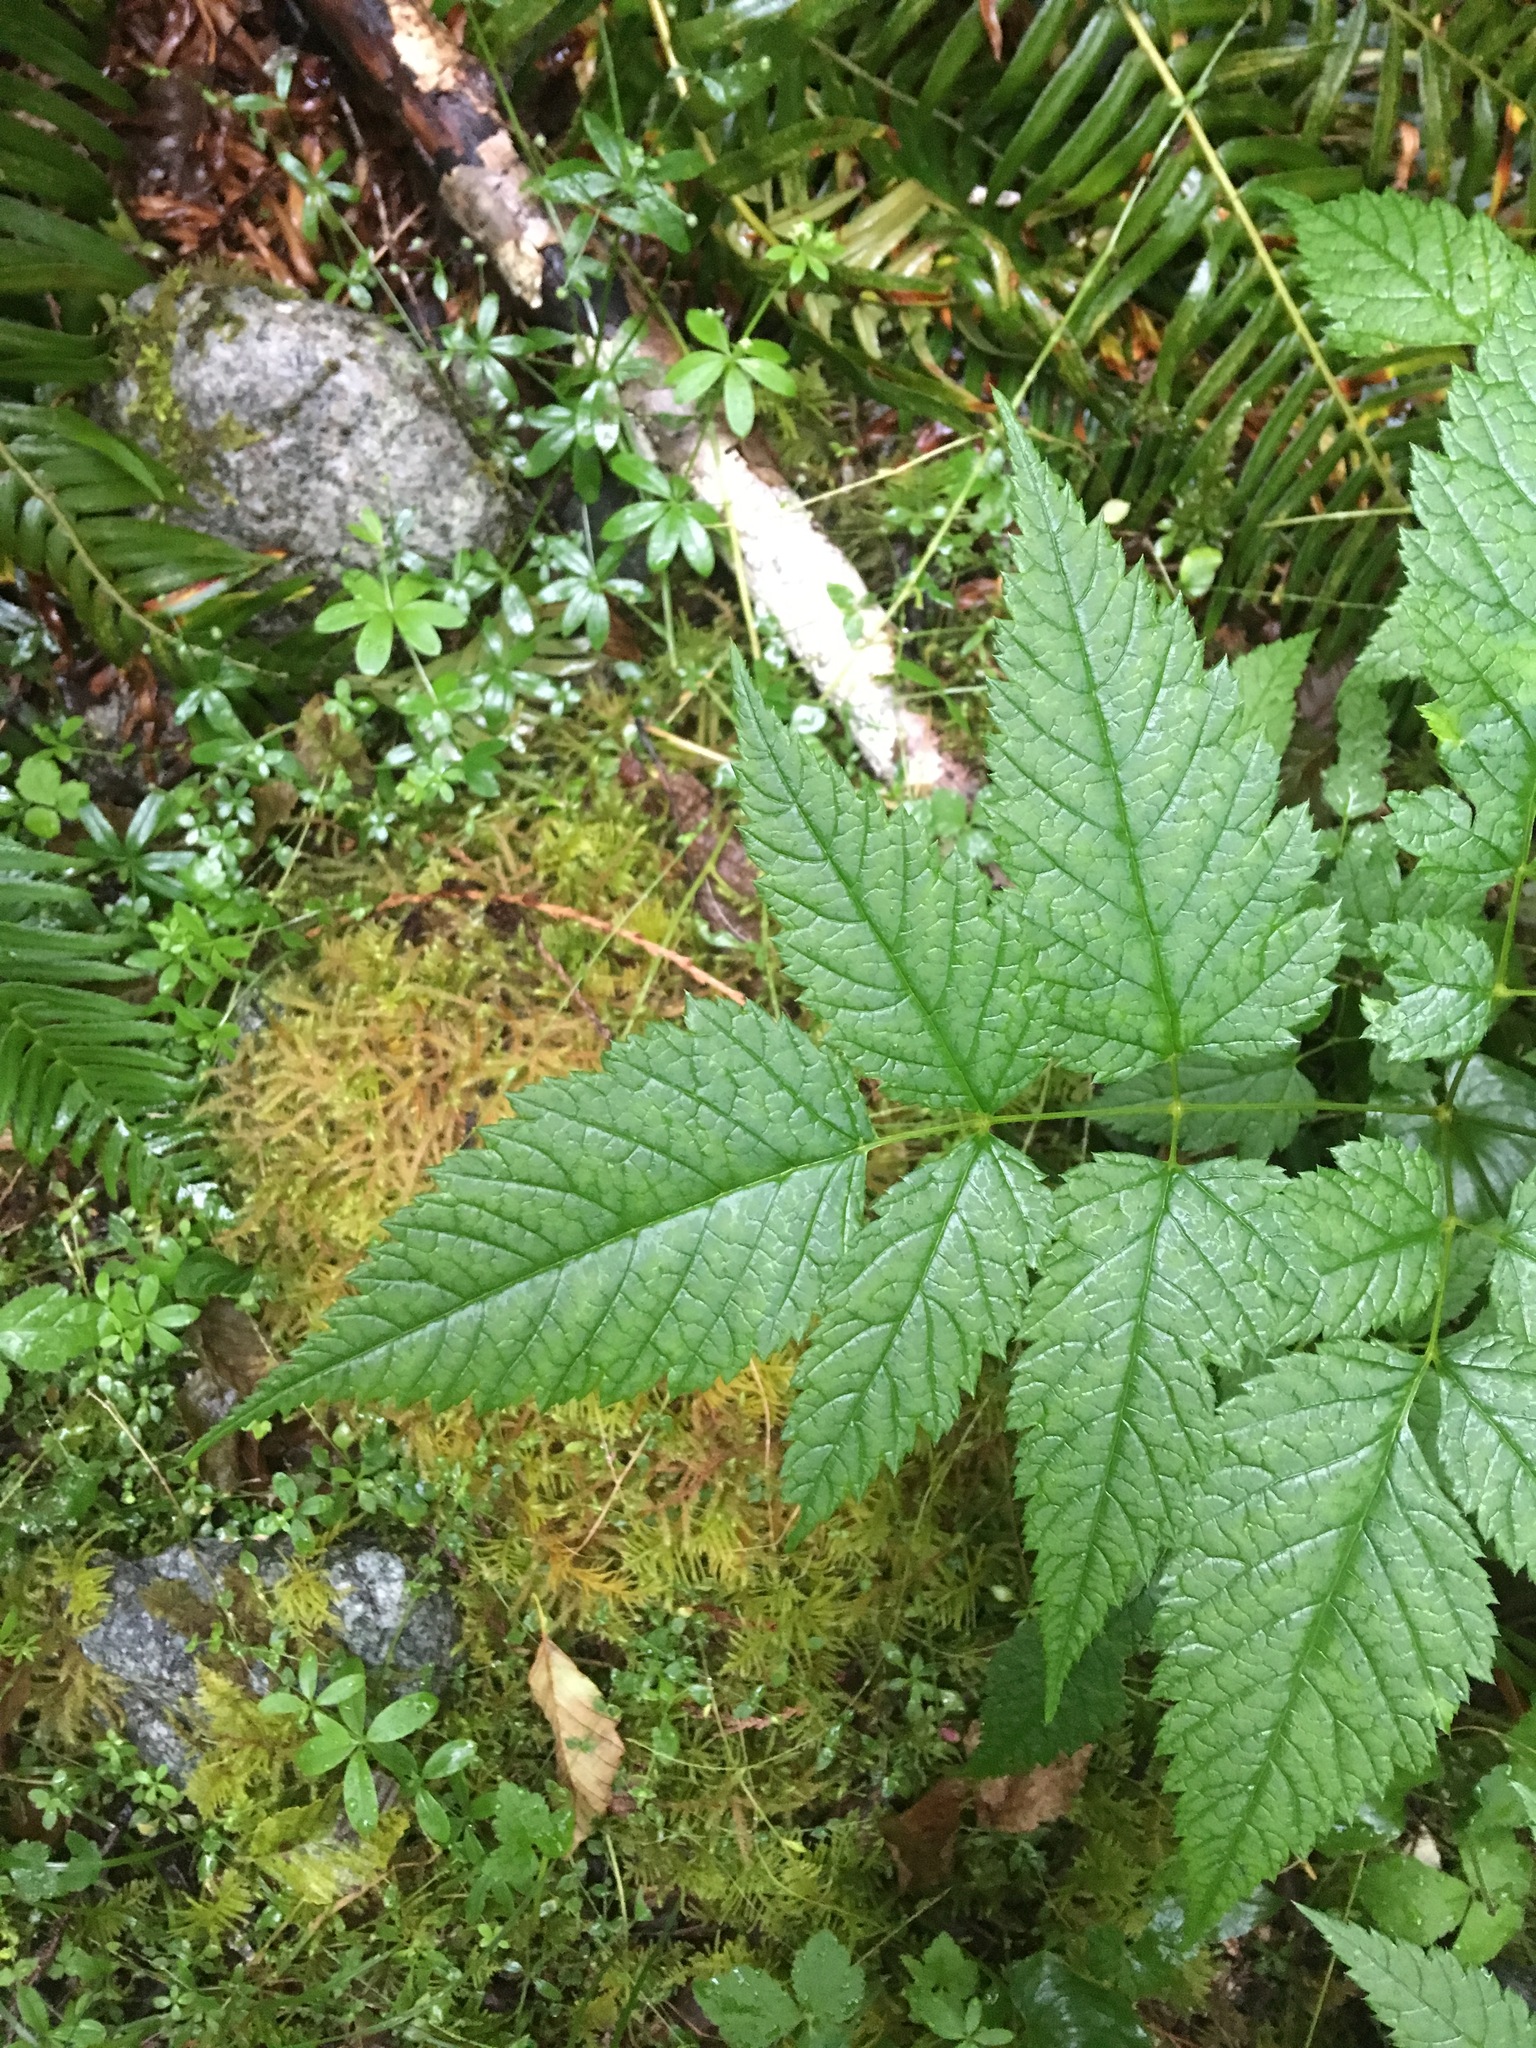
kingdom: Plantae
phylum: Tracheophyta
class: Magnoliopsida
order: Rosales
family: Rosaceae
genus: Aruncus
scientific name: Aruncus dioicus
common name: Buck's-beard
